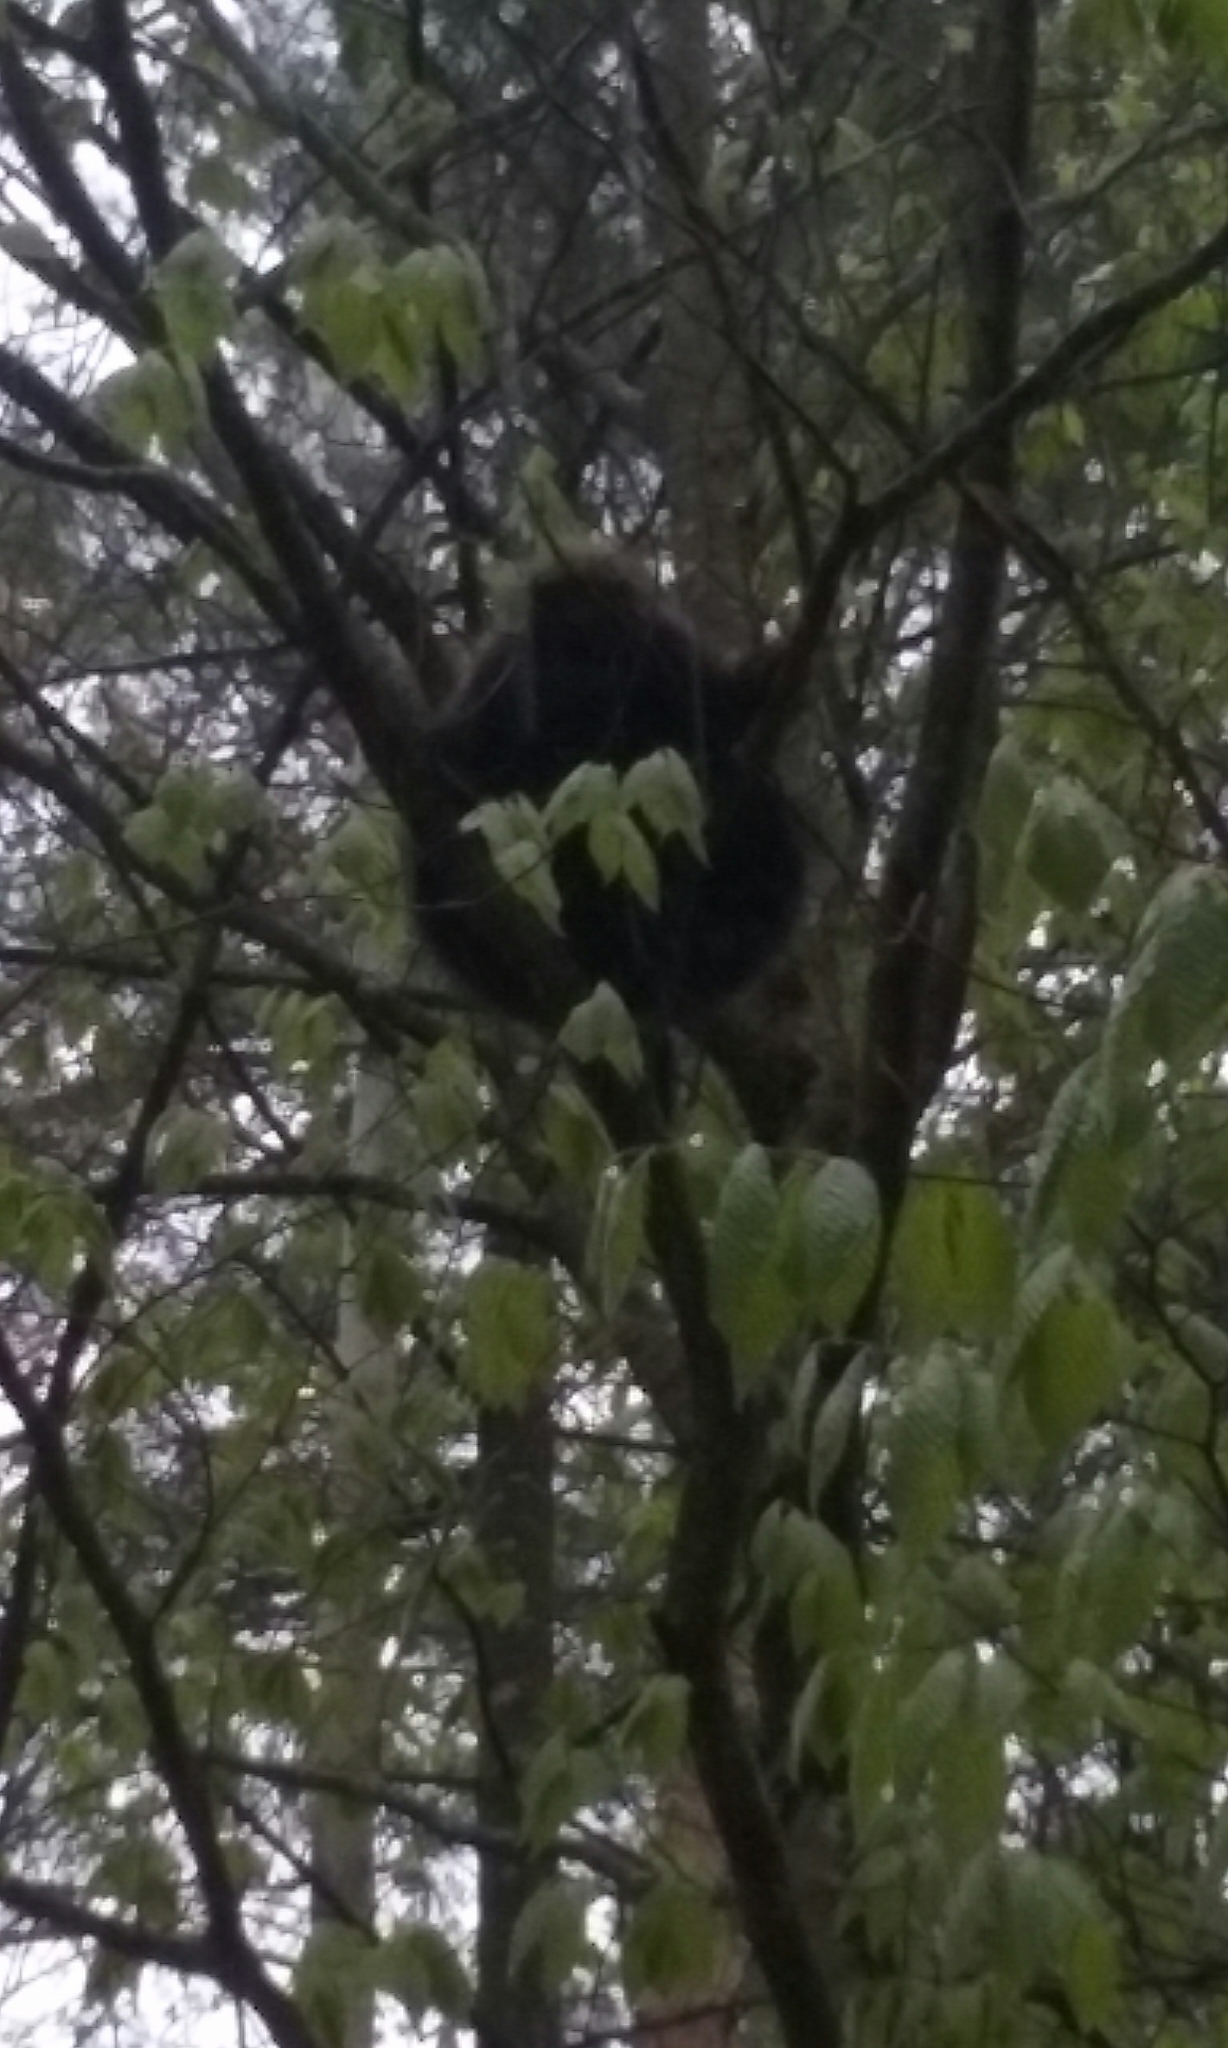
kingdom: Animalia
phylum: Chordata
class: Mammalia
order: Rodentia
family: Erethizontidae
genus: Erethizon
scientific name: Erethizon dorsatus
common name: North american porcupine
